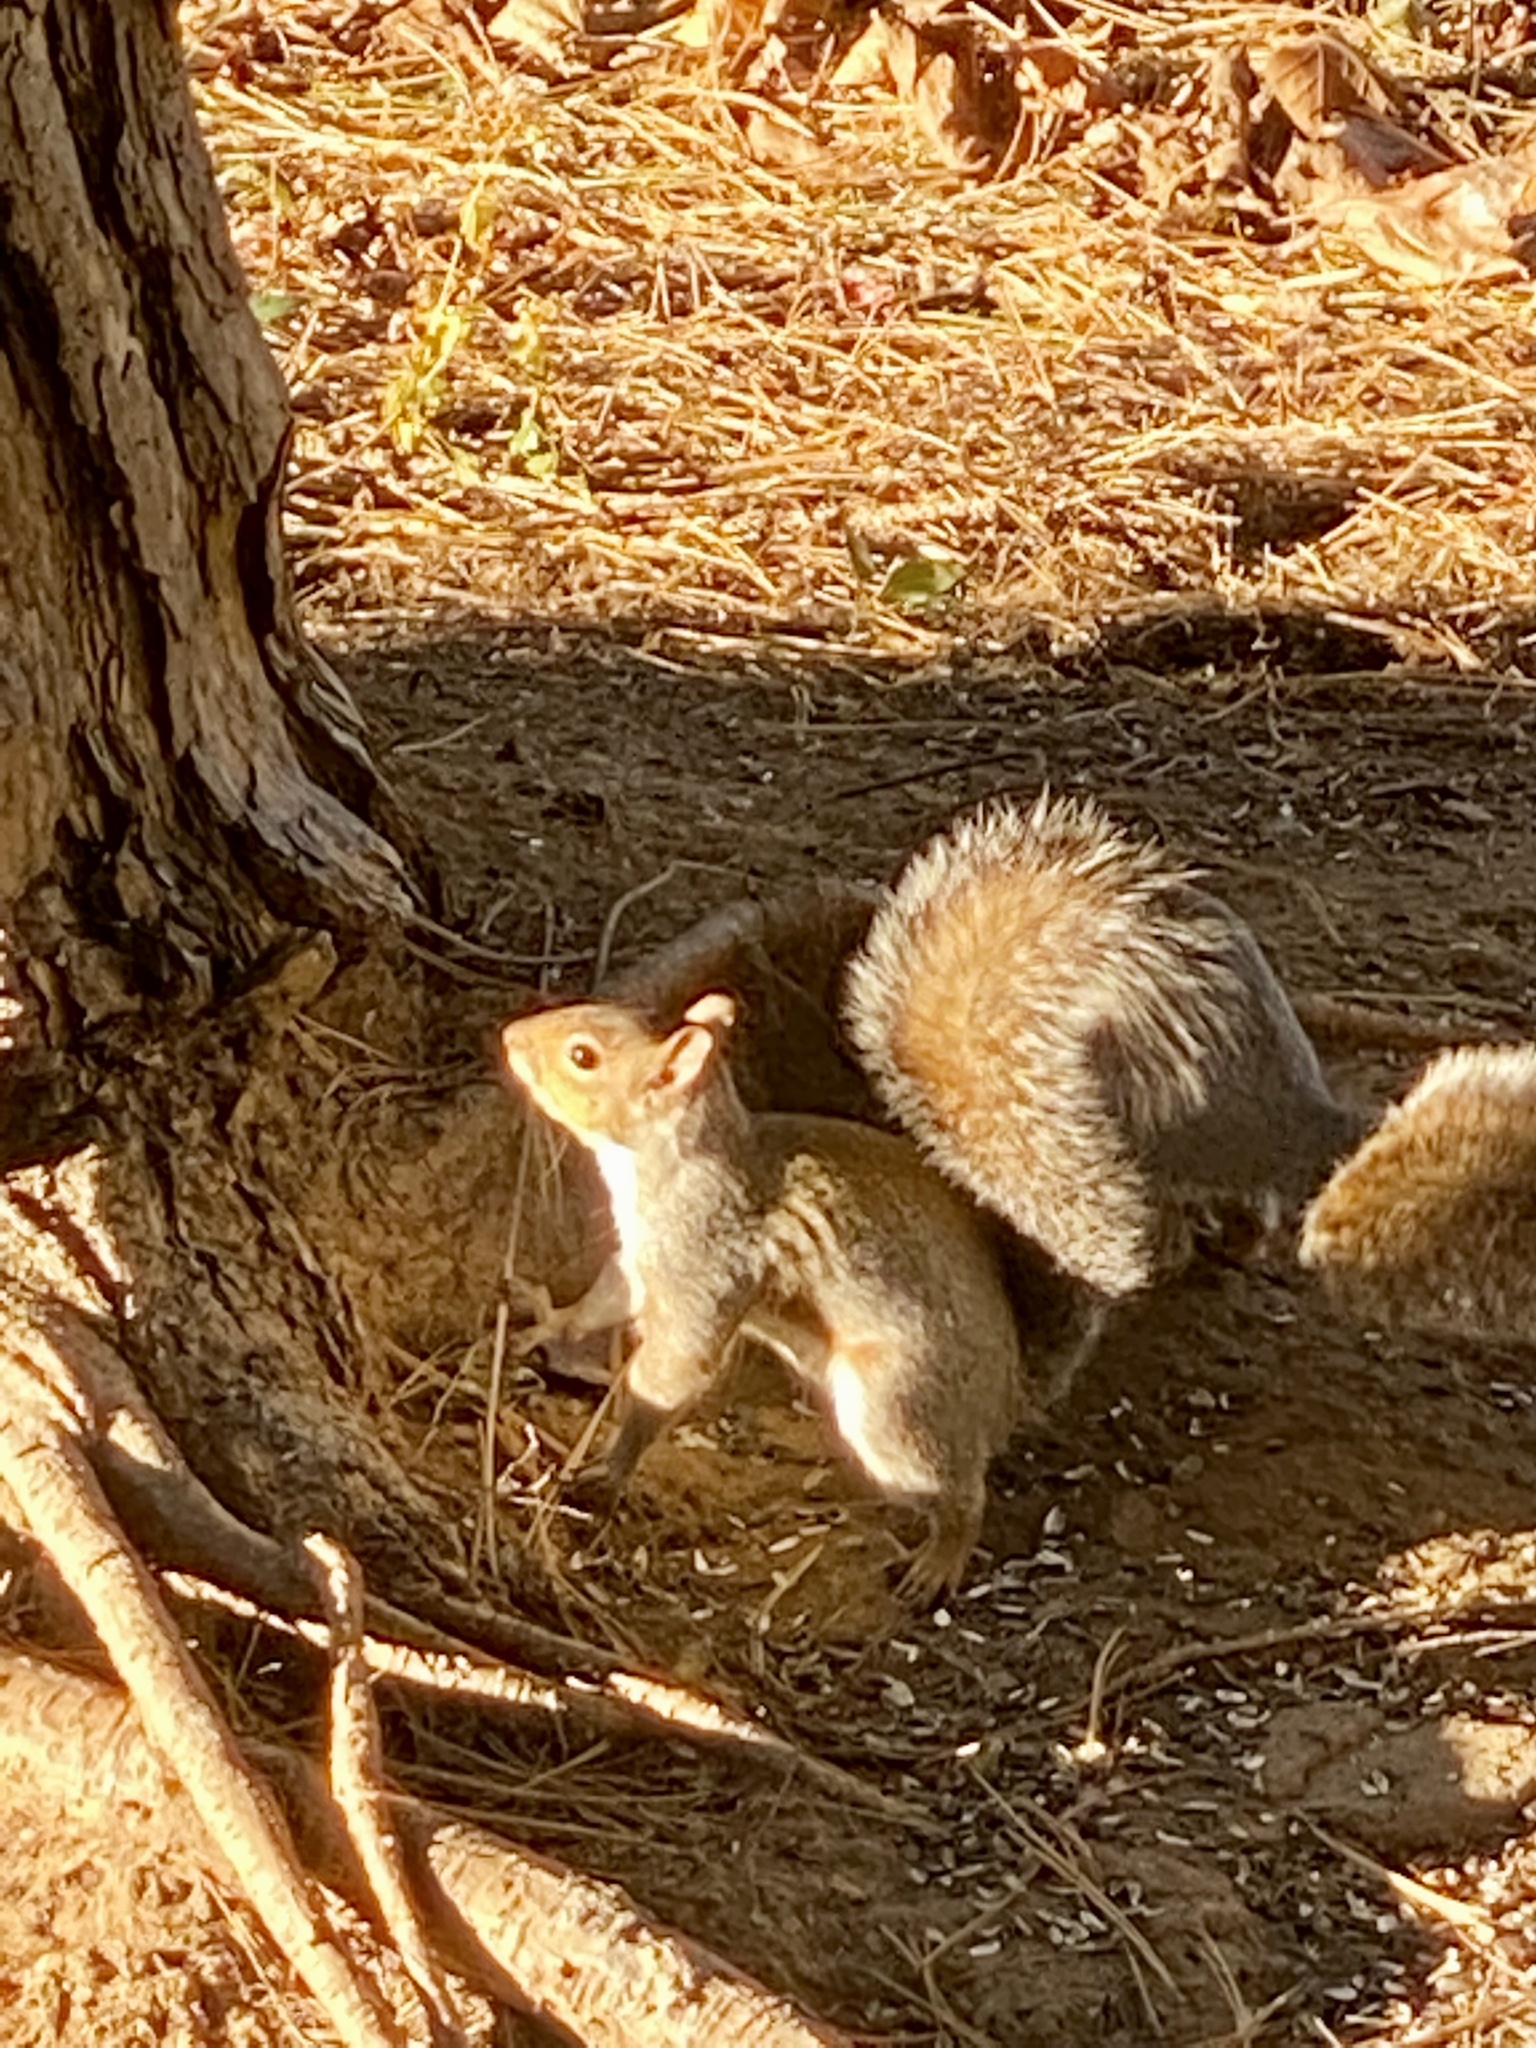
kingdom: Animalia
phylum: Chordata
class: Mammalia
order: Rodentia
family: Sciuridae
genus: Sciurus
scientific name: Sciurus carolinensis
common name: Eastern gray squirrel
